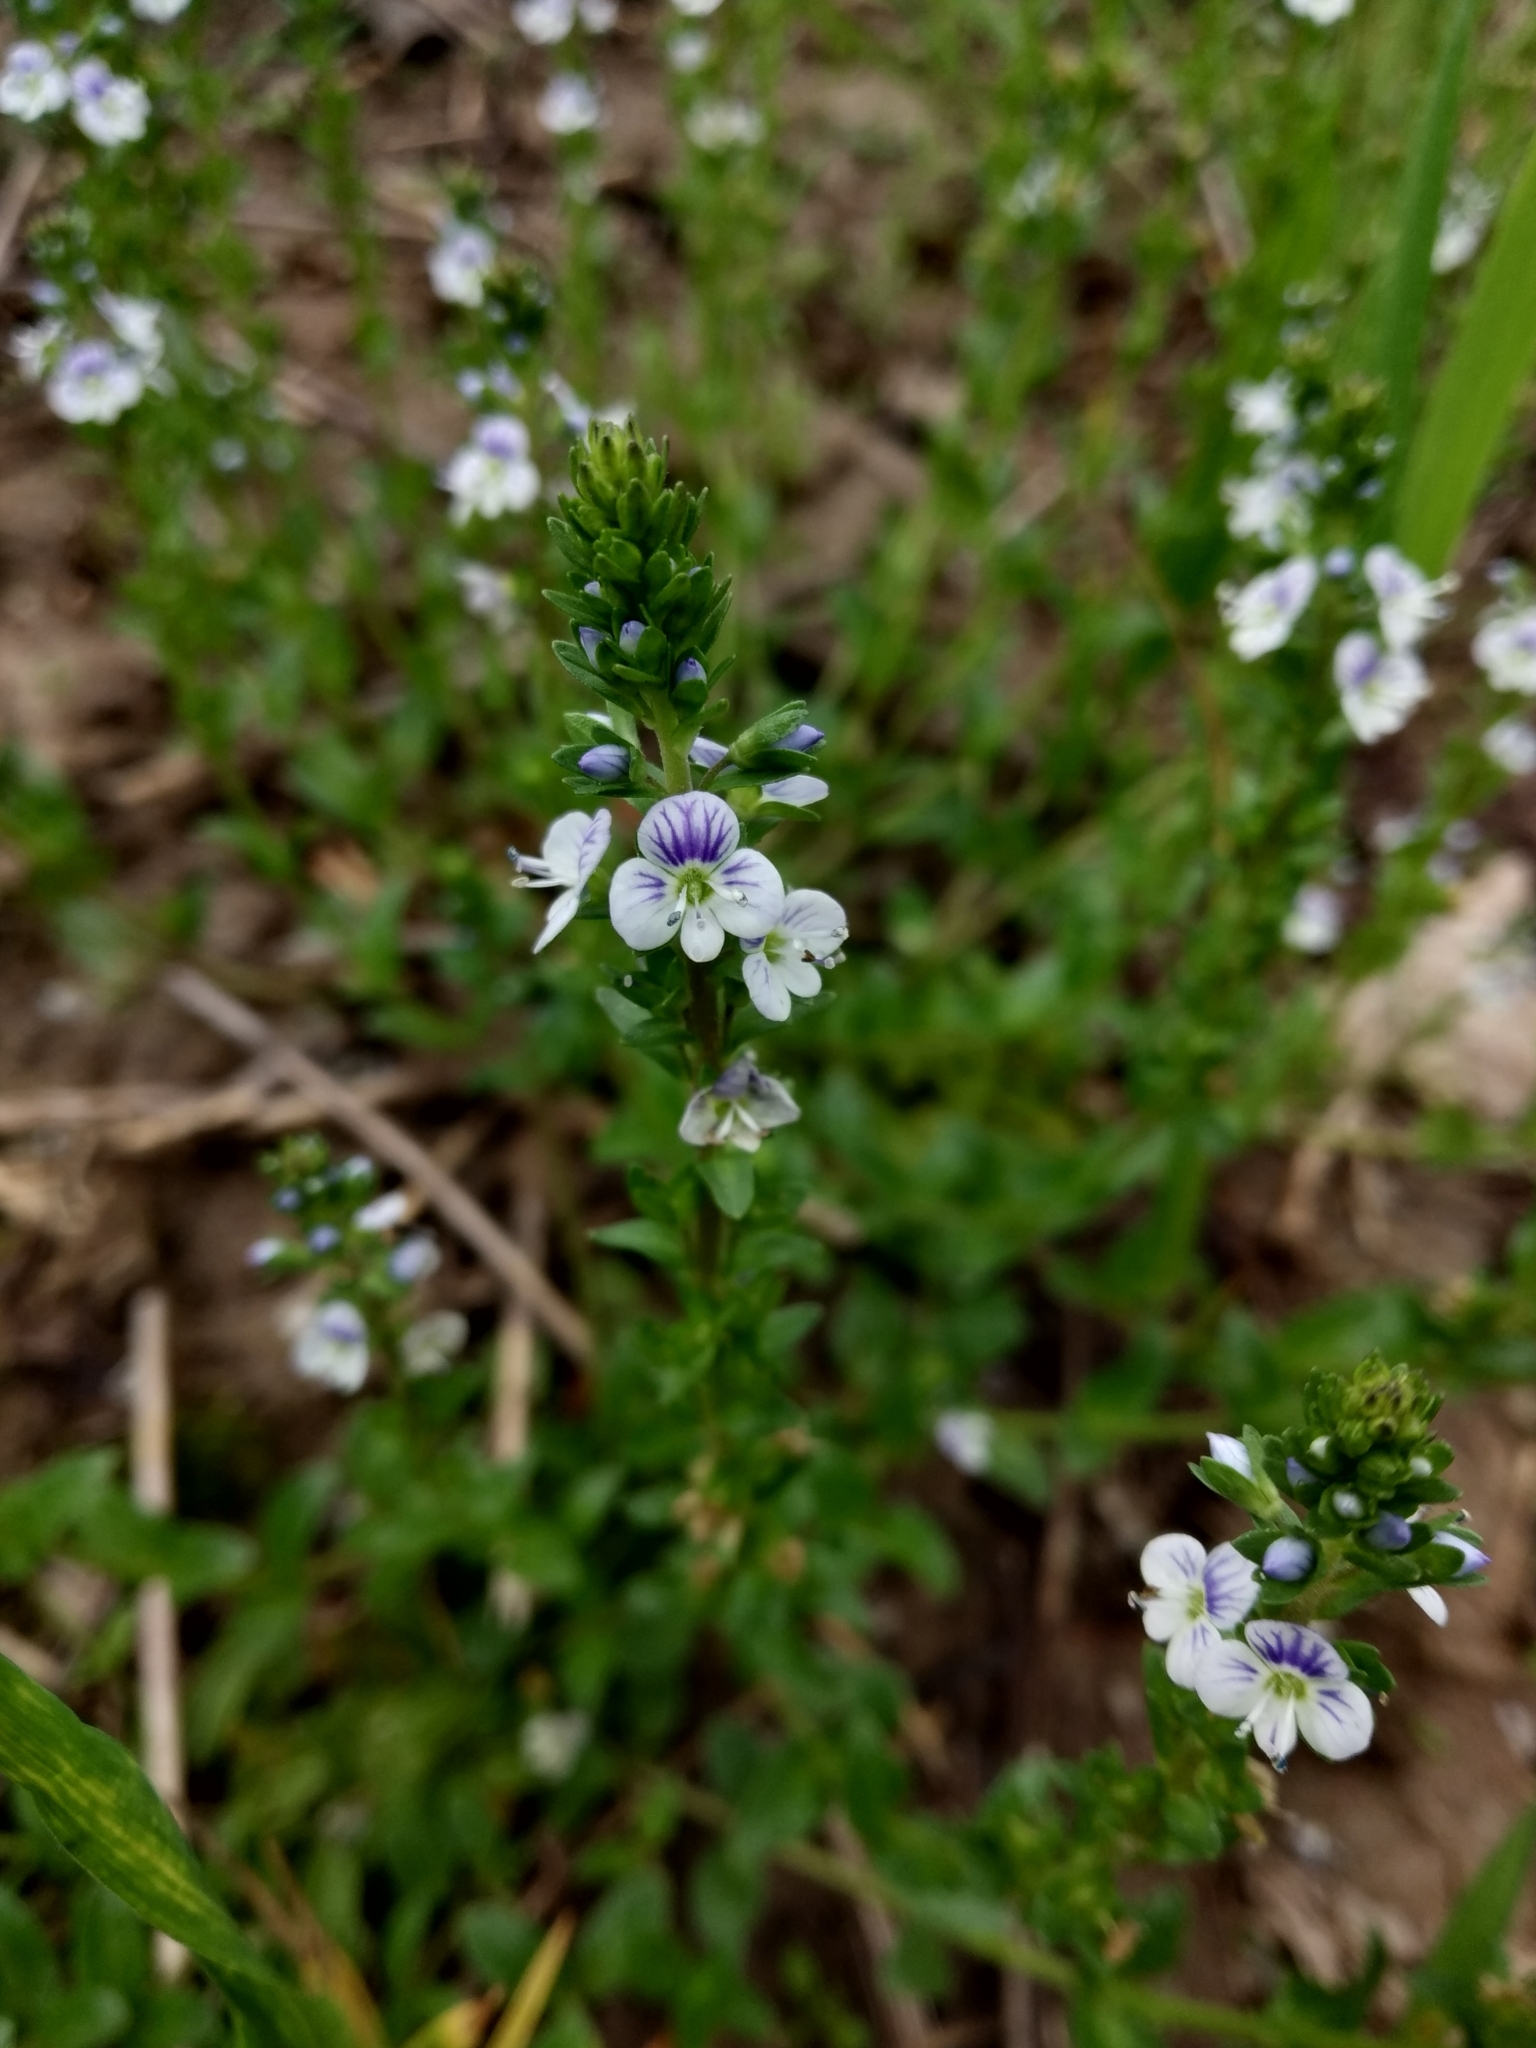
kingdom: Plantae
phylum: Tracheophyta
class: Magnoliopsida
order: Lamiales
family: Plantaginaceae
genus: Veronica
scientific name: Veronica serpyllifolia
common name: Thyme-leaved speedwell
